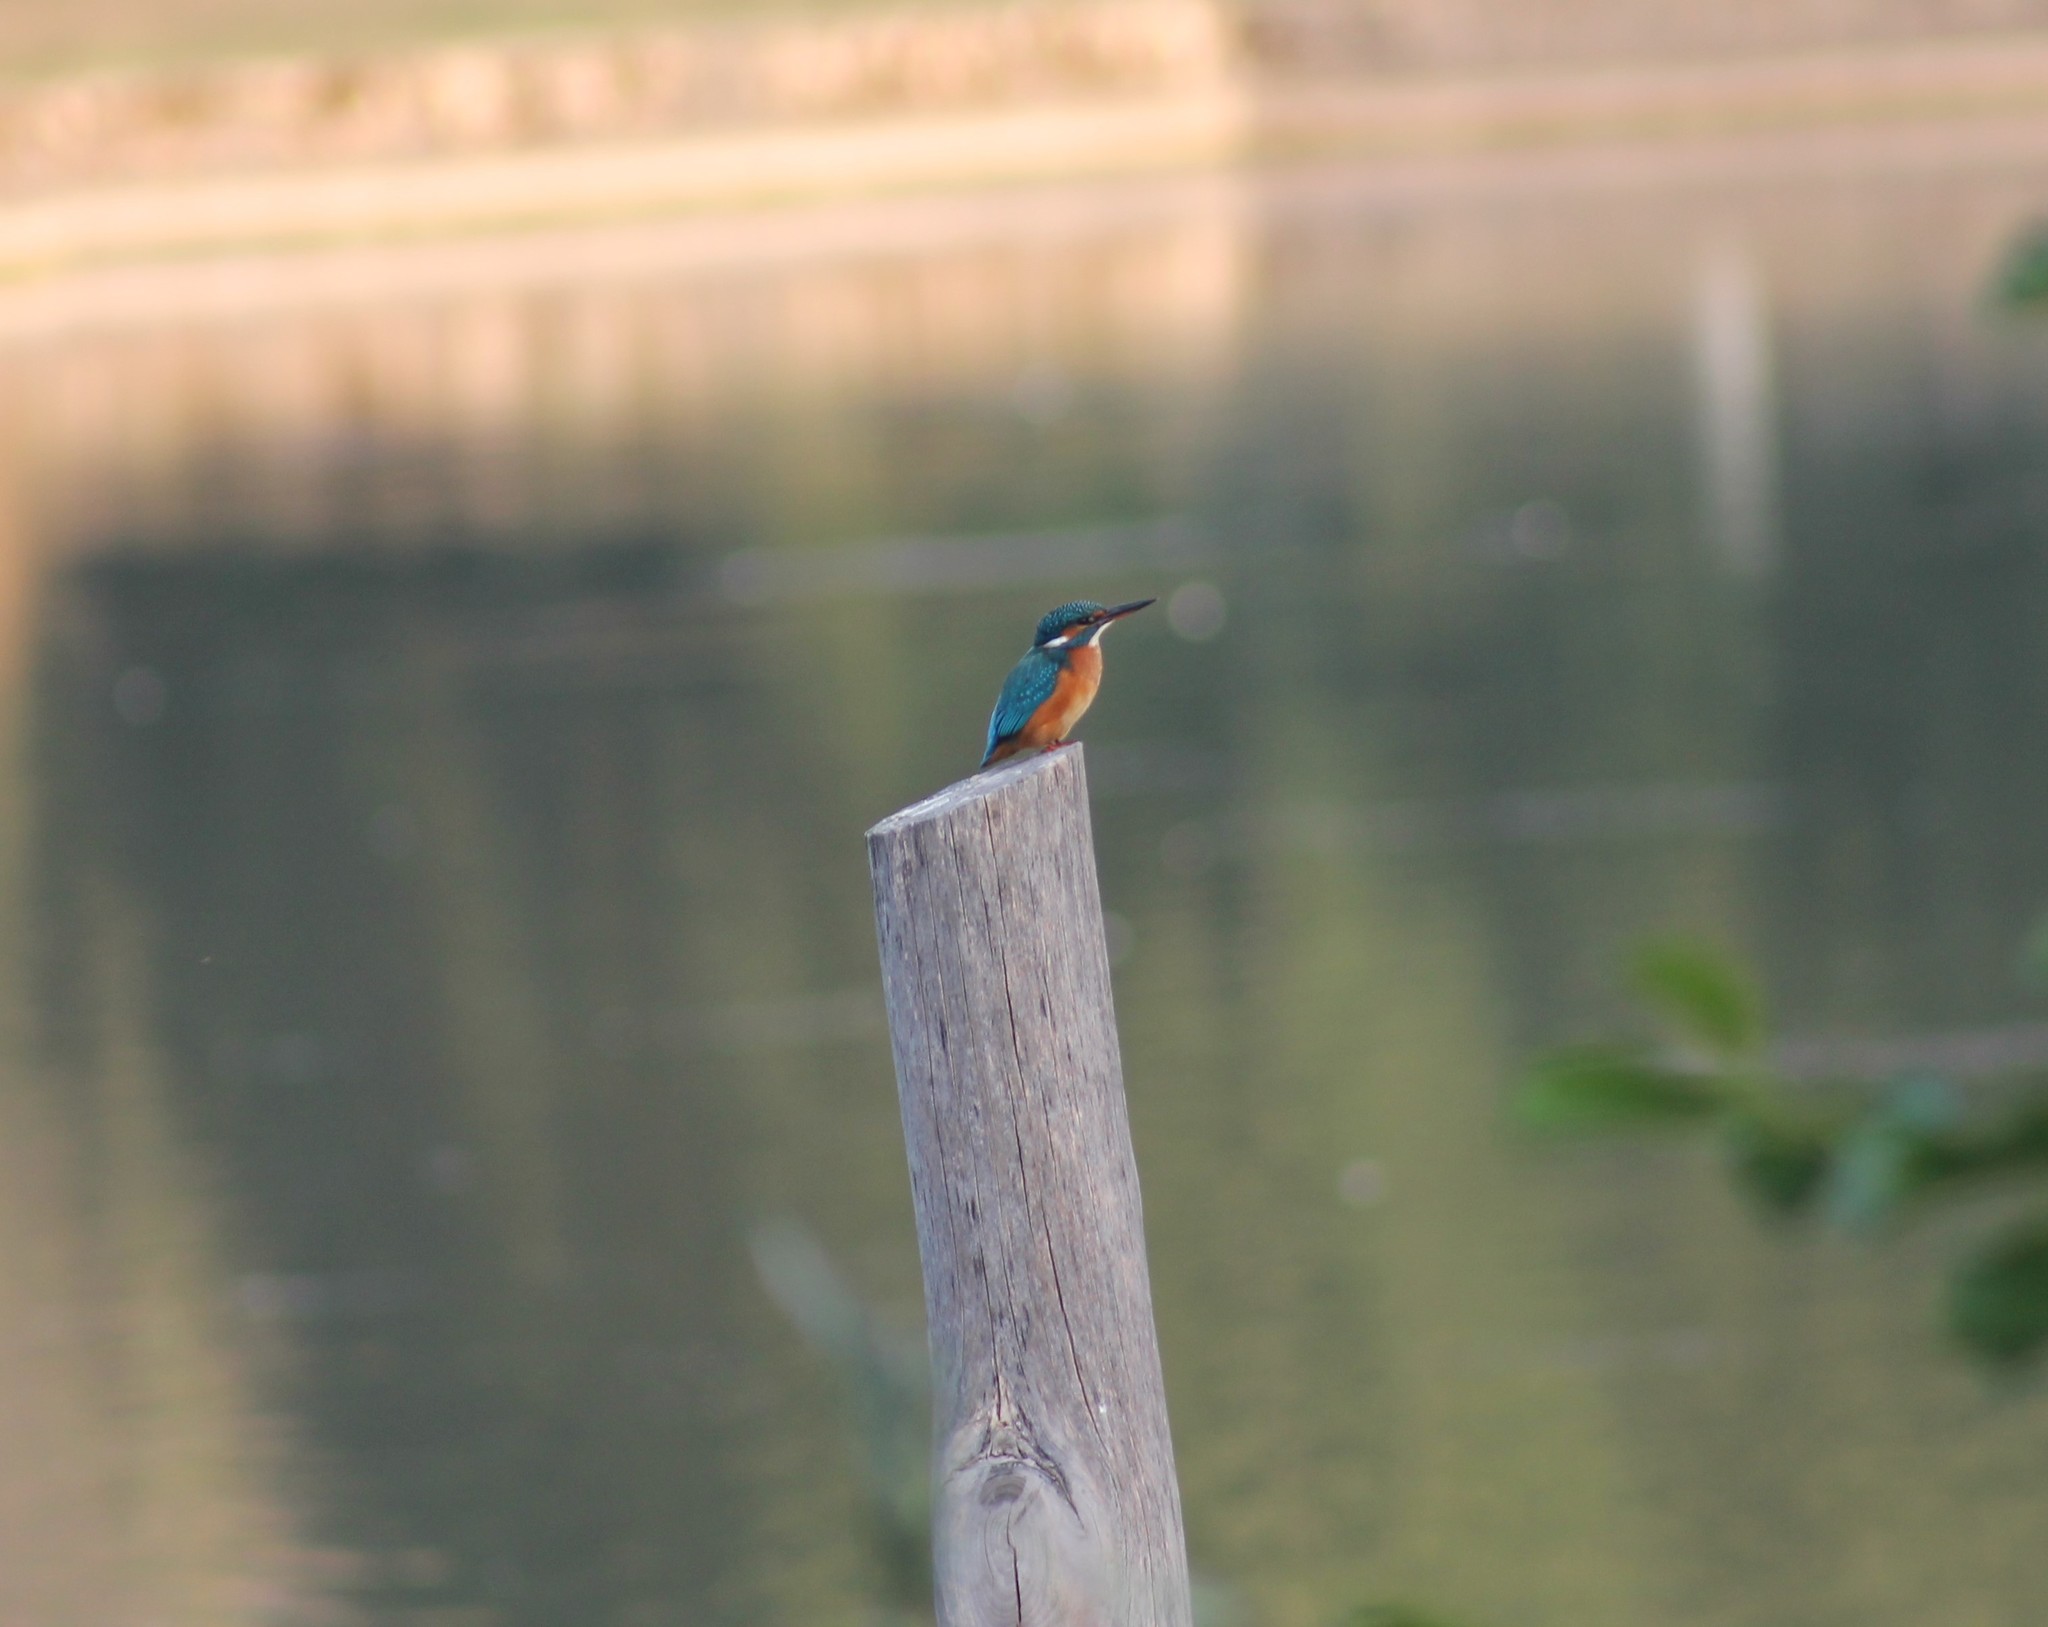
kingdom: Animalia
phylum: Chordata
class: Aves
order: Coraciiformes
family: Alcedinidae
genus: Alcedo
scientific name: Alcedo atthis
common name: Common kingfisher
